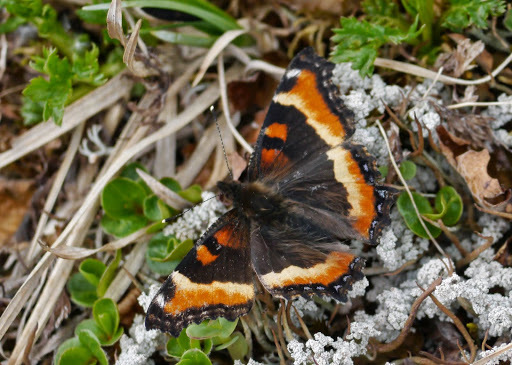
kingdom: Animalia
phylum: Arthropoda
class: Insecta
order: Lepidoptera
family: Nymphalidae
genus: Aglais
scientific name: Aglais milberti
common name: Milbert's tortoiseshell
